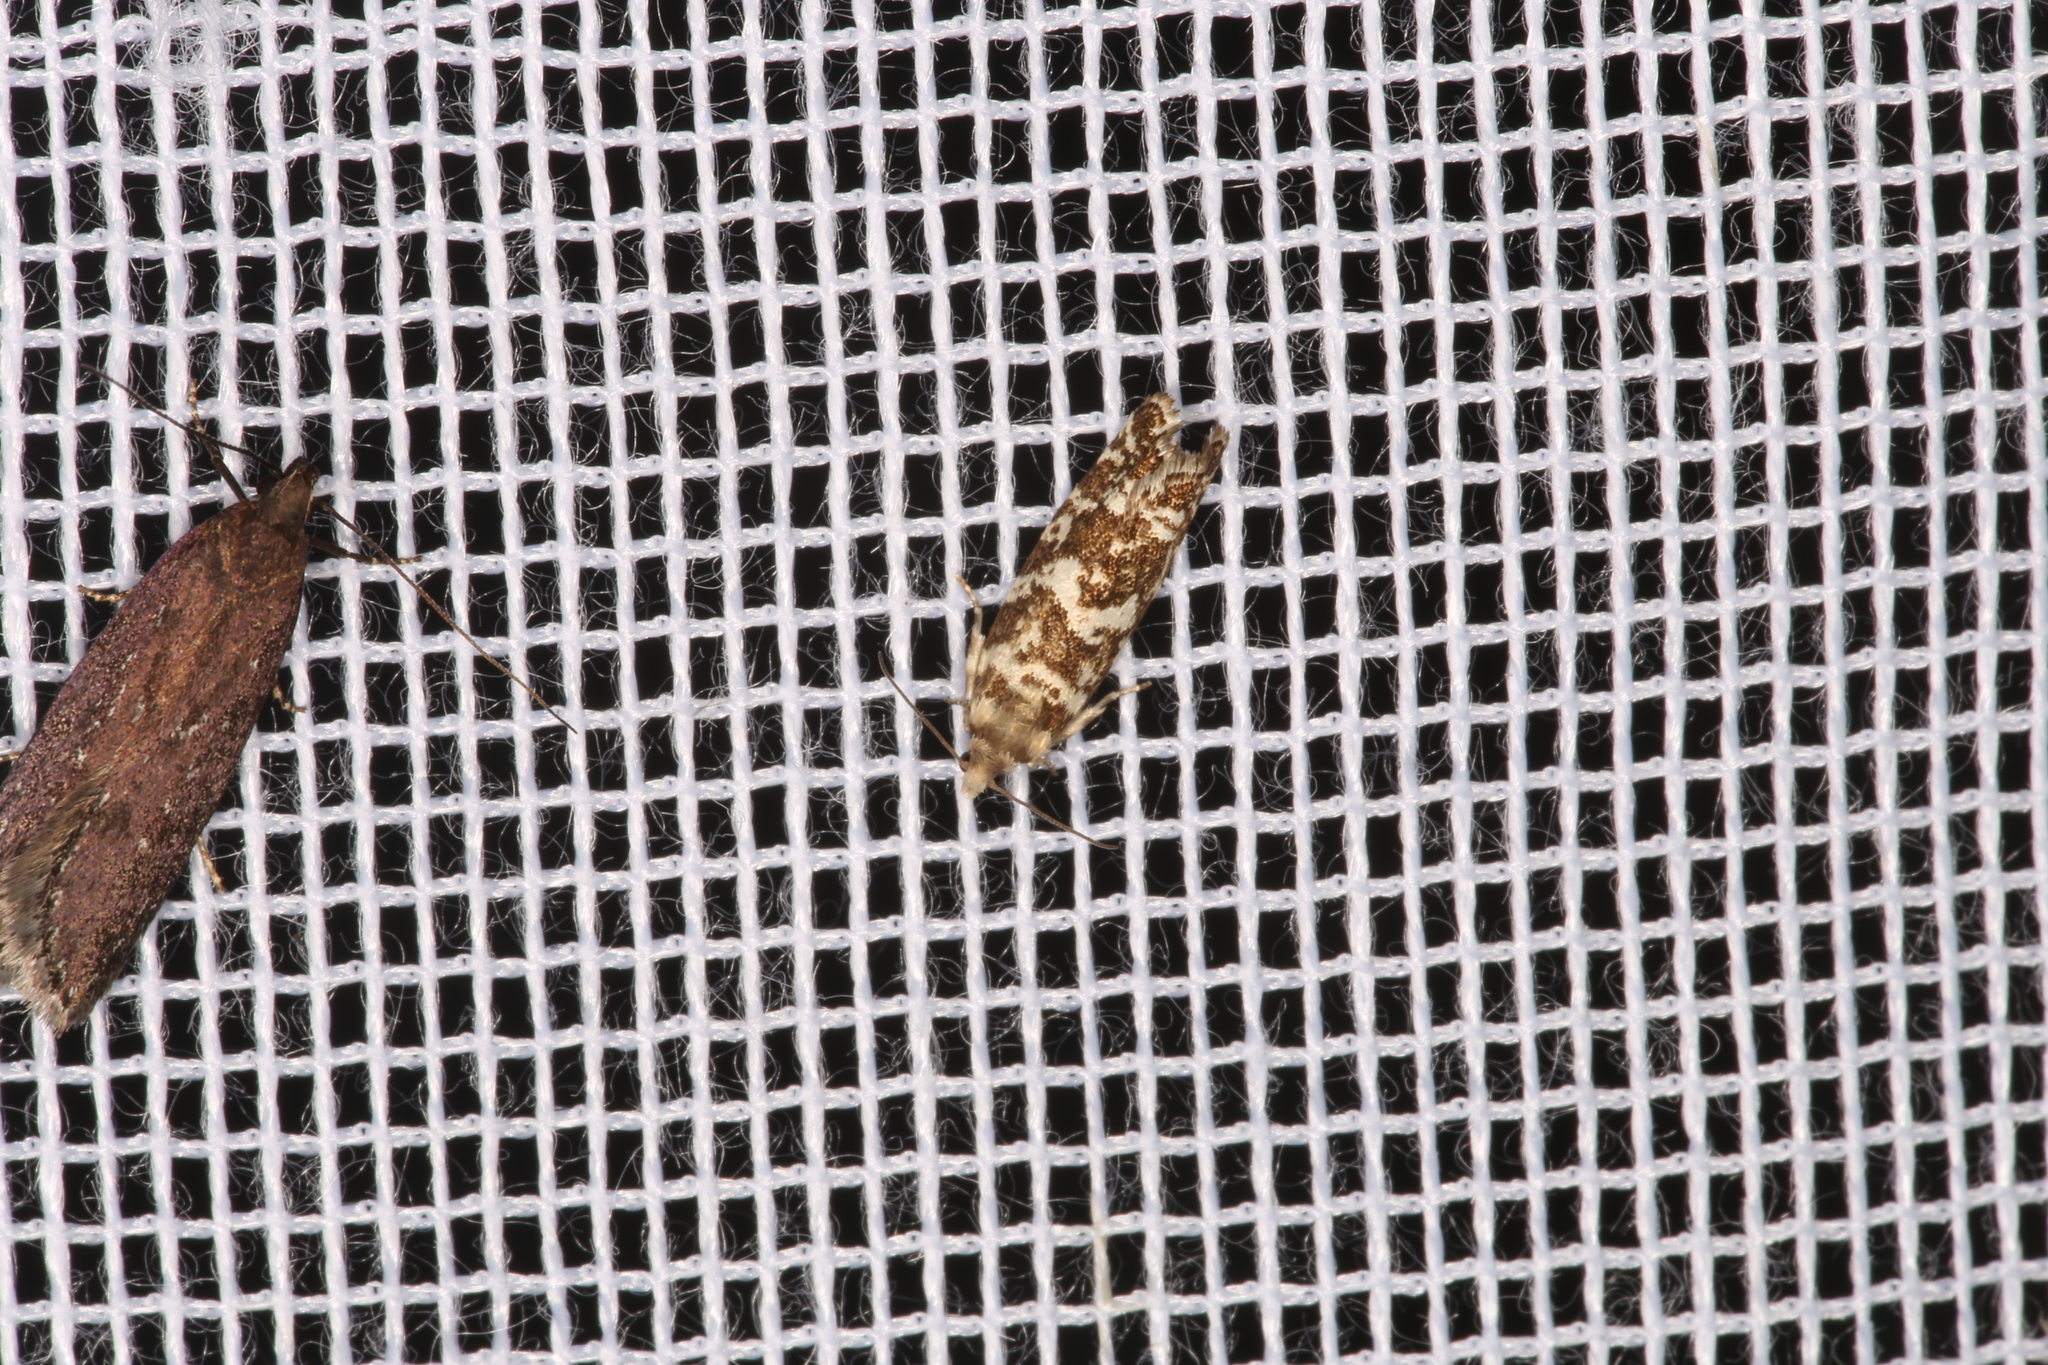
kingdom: Animalia
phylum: Arthropoda
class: Insecta
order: Lepidoptera
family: Tortricidae
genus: Epinotia
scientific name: Epinotia tedella
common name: Common spruce bell
